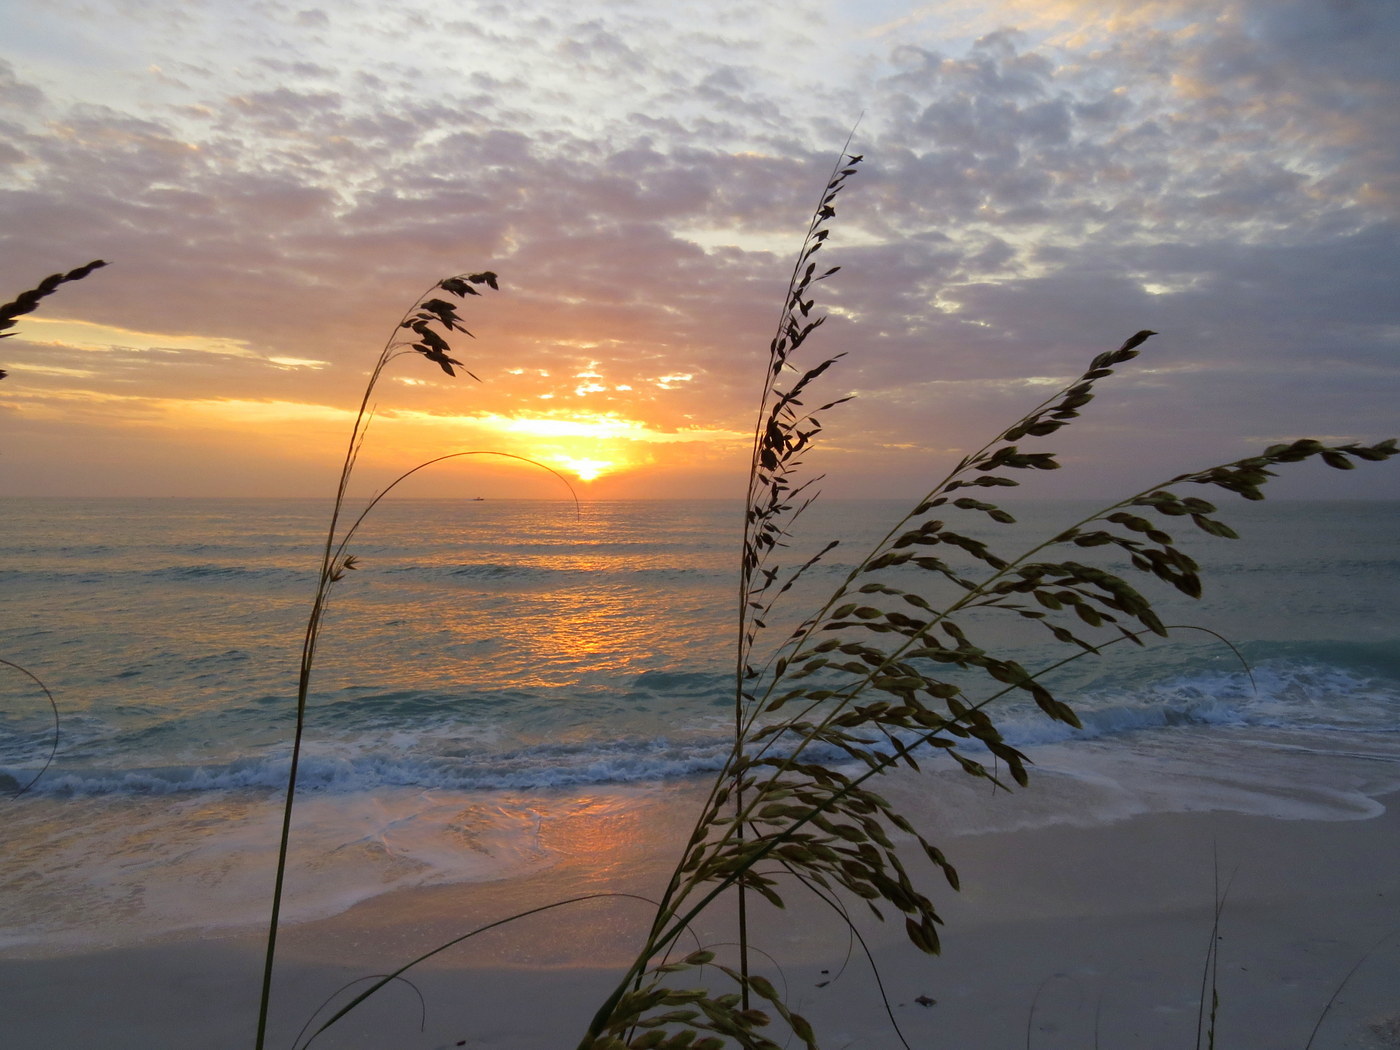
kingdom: Plantae
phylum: Tracheophyta
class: Liliopsida
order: Poales
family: Poaceae
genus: Uniola
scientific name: Uniola paniculata
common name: Seaside-oats
